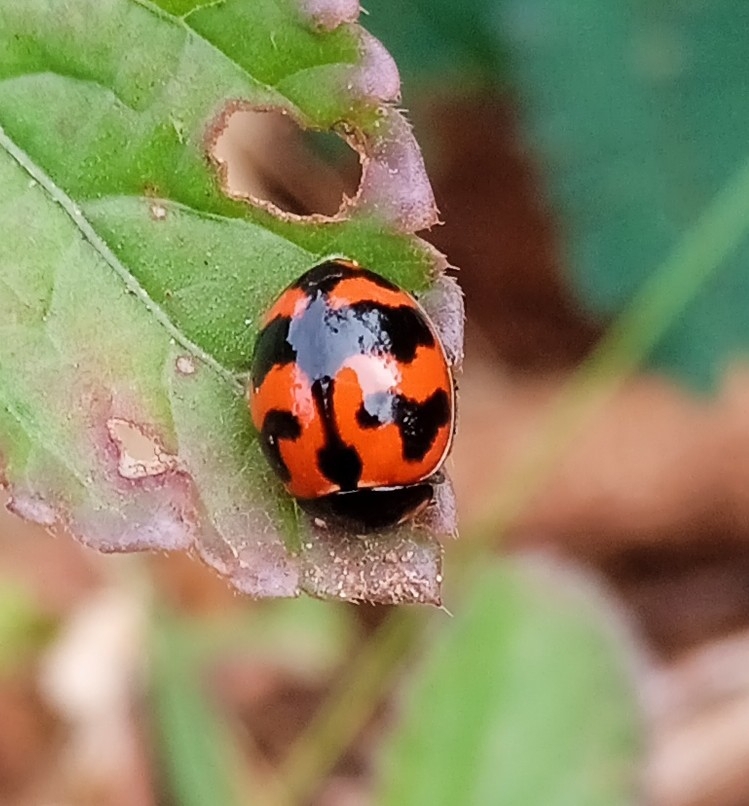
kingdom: Animalia
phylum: Arthropoda
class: Insecta
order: Coleoptera
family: Coccinellidae
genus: Coccinella
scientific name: Coccinella transversalis
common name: Transverse lady beetle
